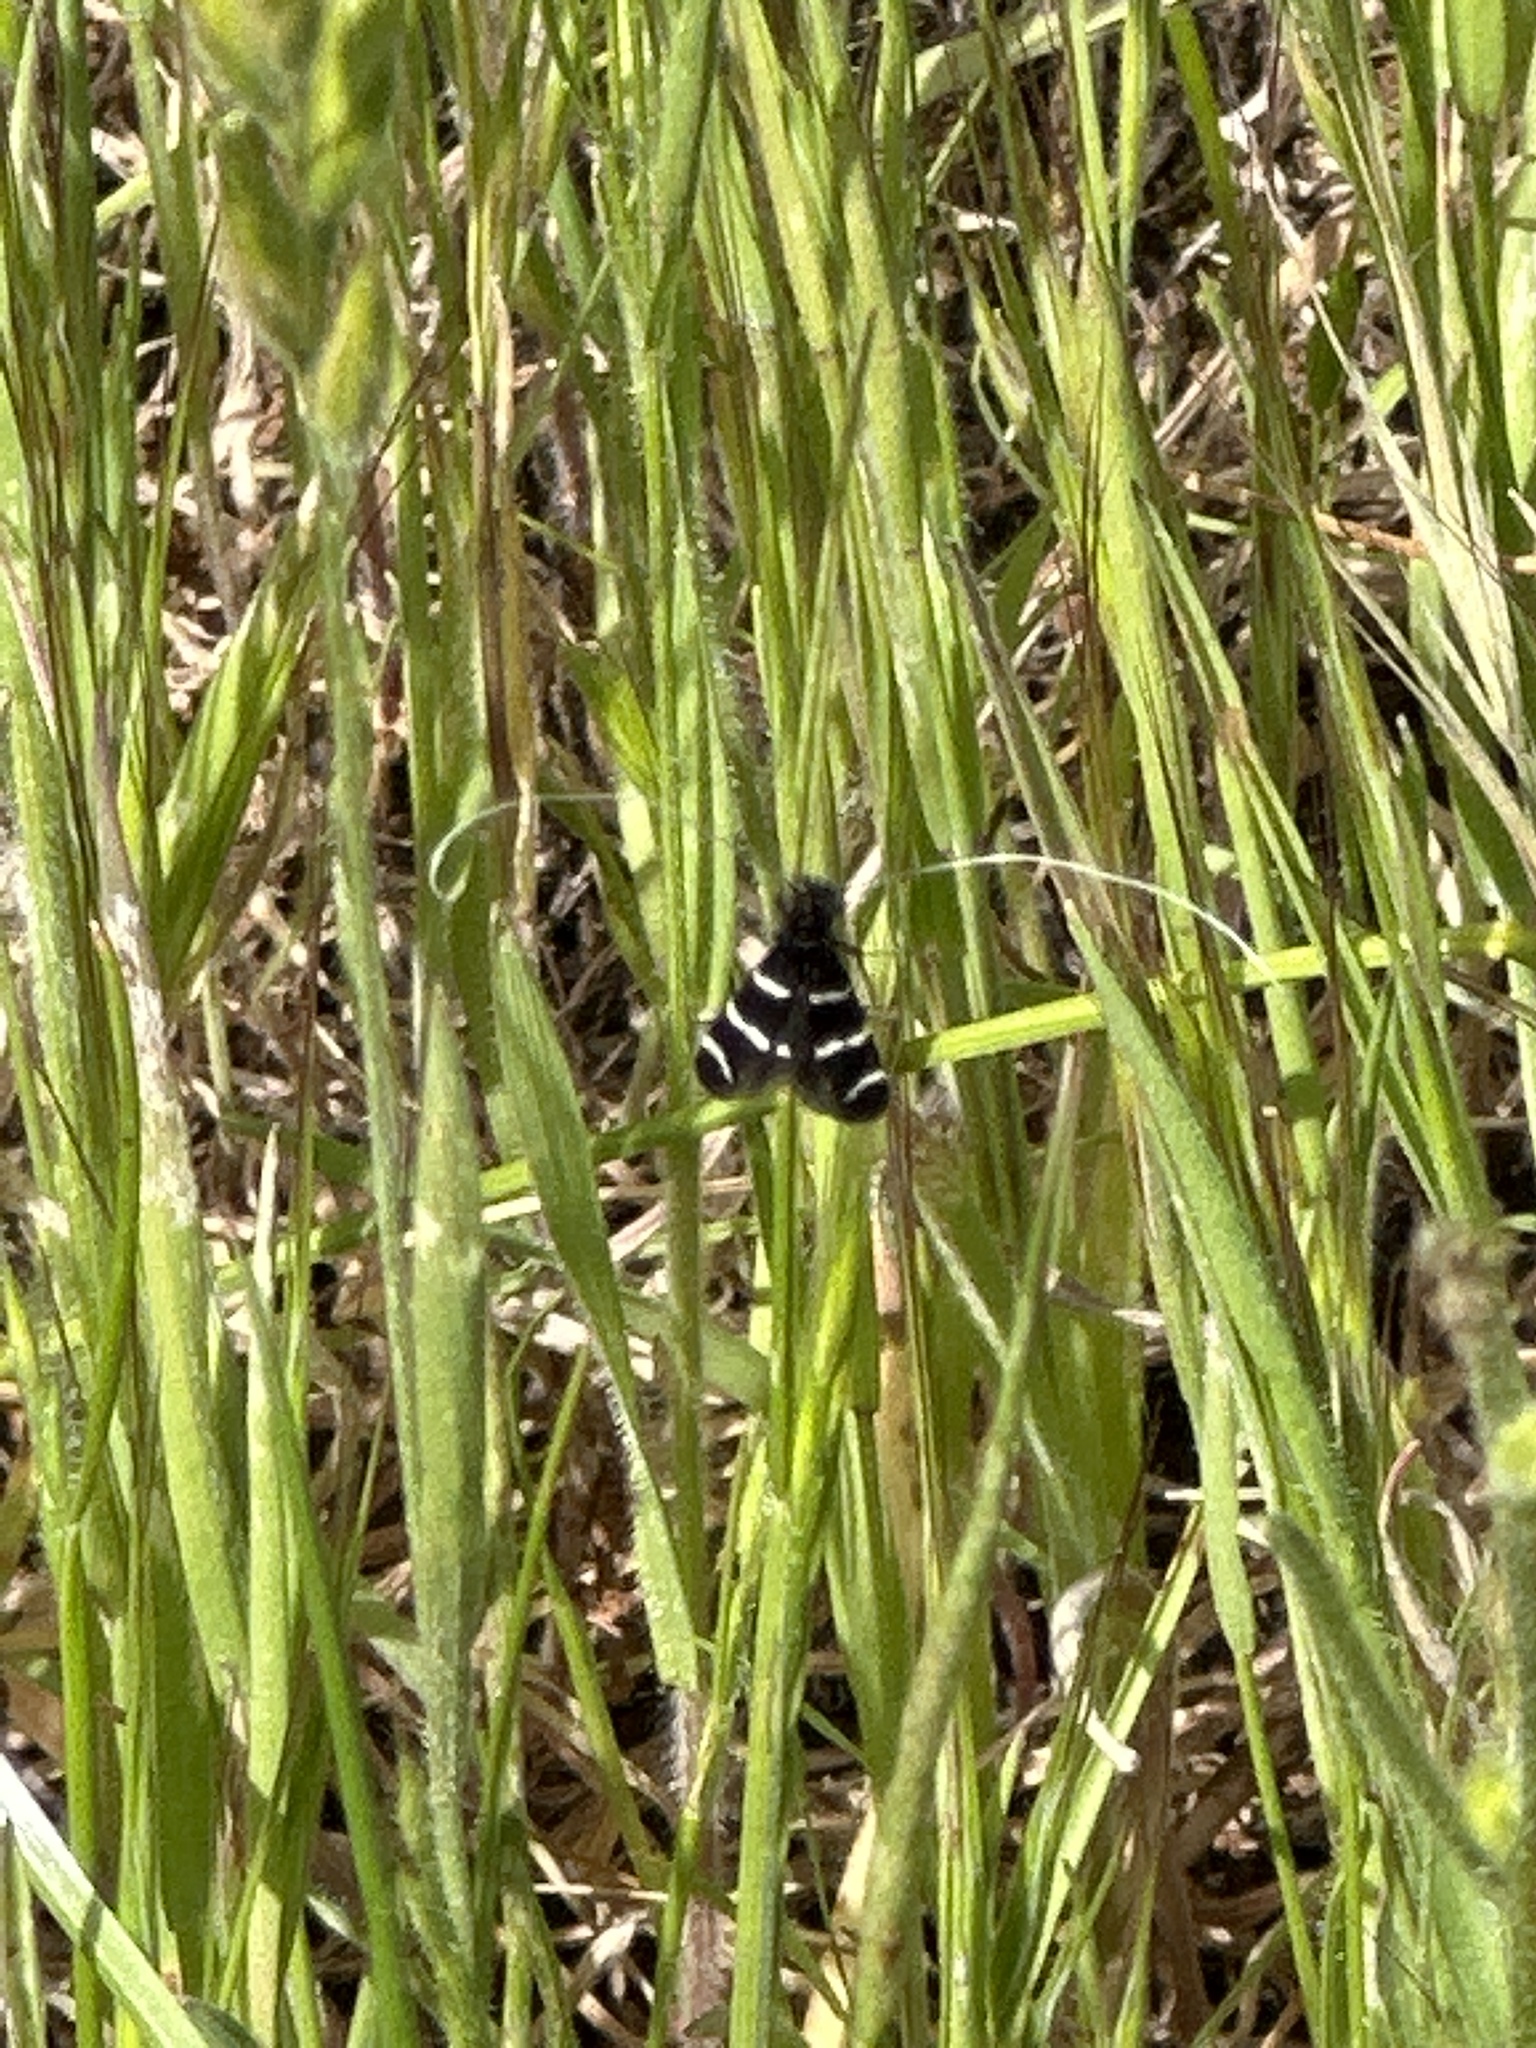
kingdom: Animalia
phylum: Arthropoda
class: Insecta
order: Lepidoptera
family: Adelidae
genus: Adela
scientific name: Adela trigrapha
